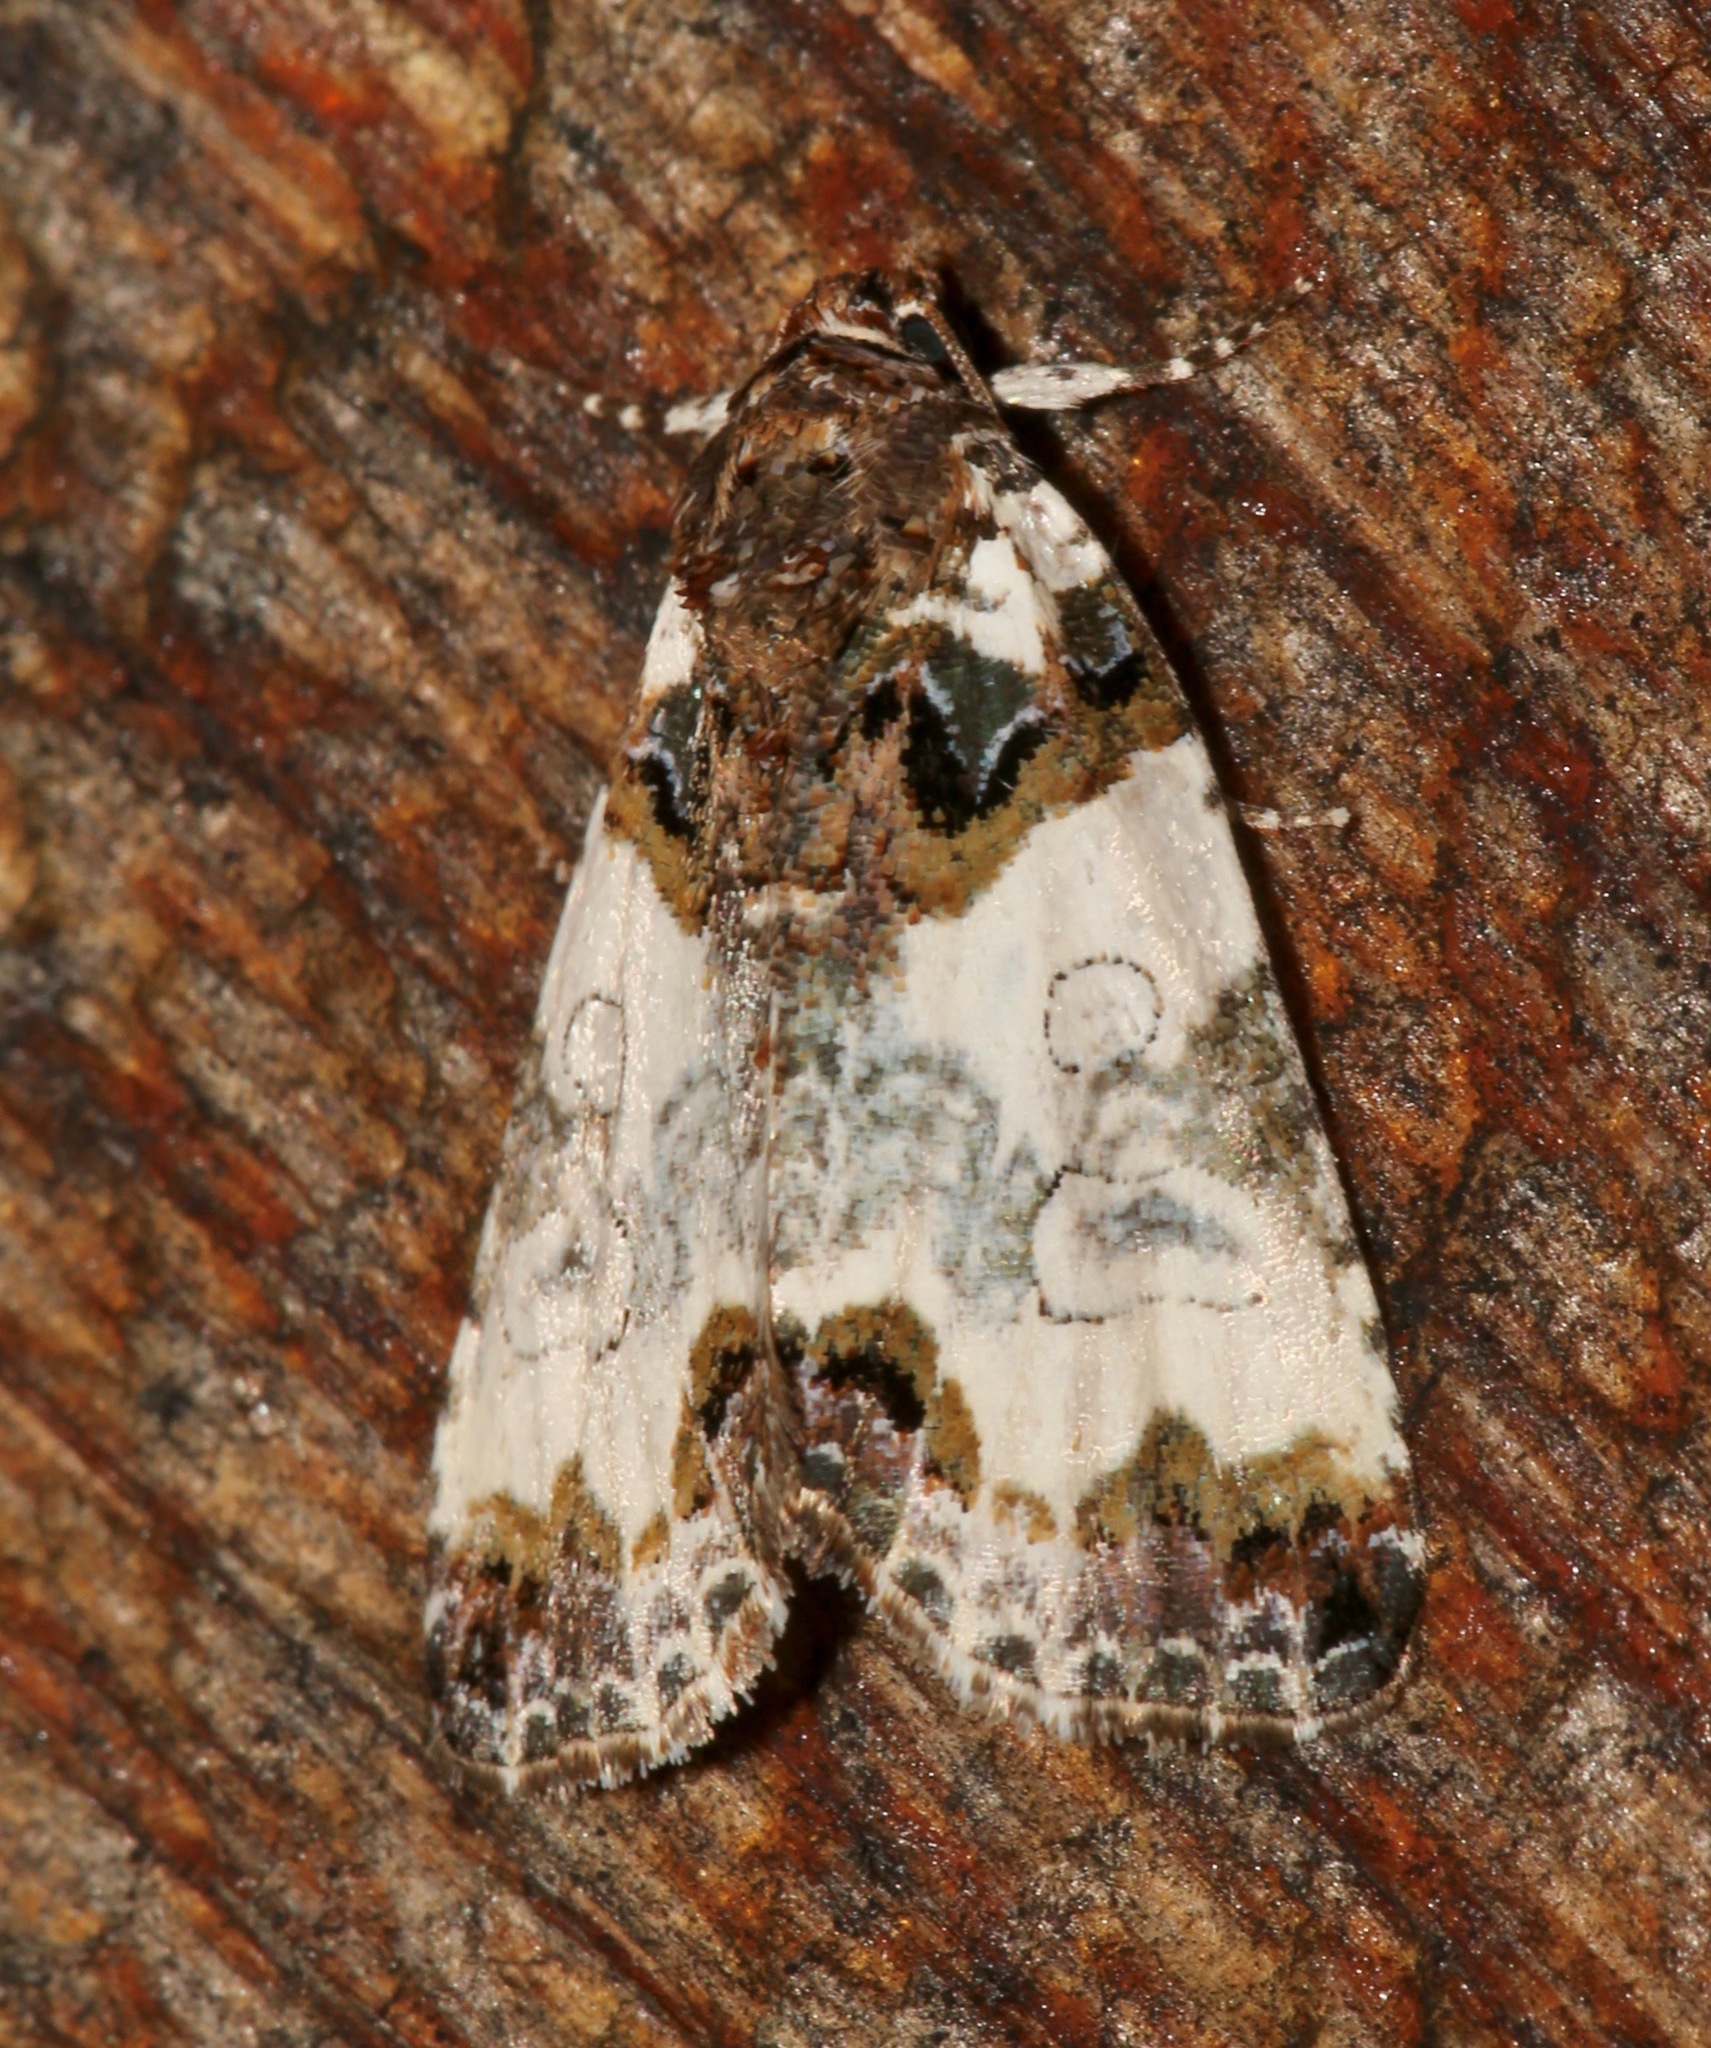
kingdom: Animalia
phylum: Arthropoda
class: Insecta
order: Lepidoptera
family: Noctuidae
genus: Cerma
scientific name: Cerma cerintha
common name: Tufted bird-dropping moth
